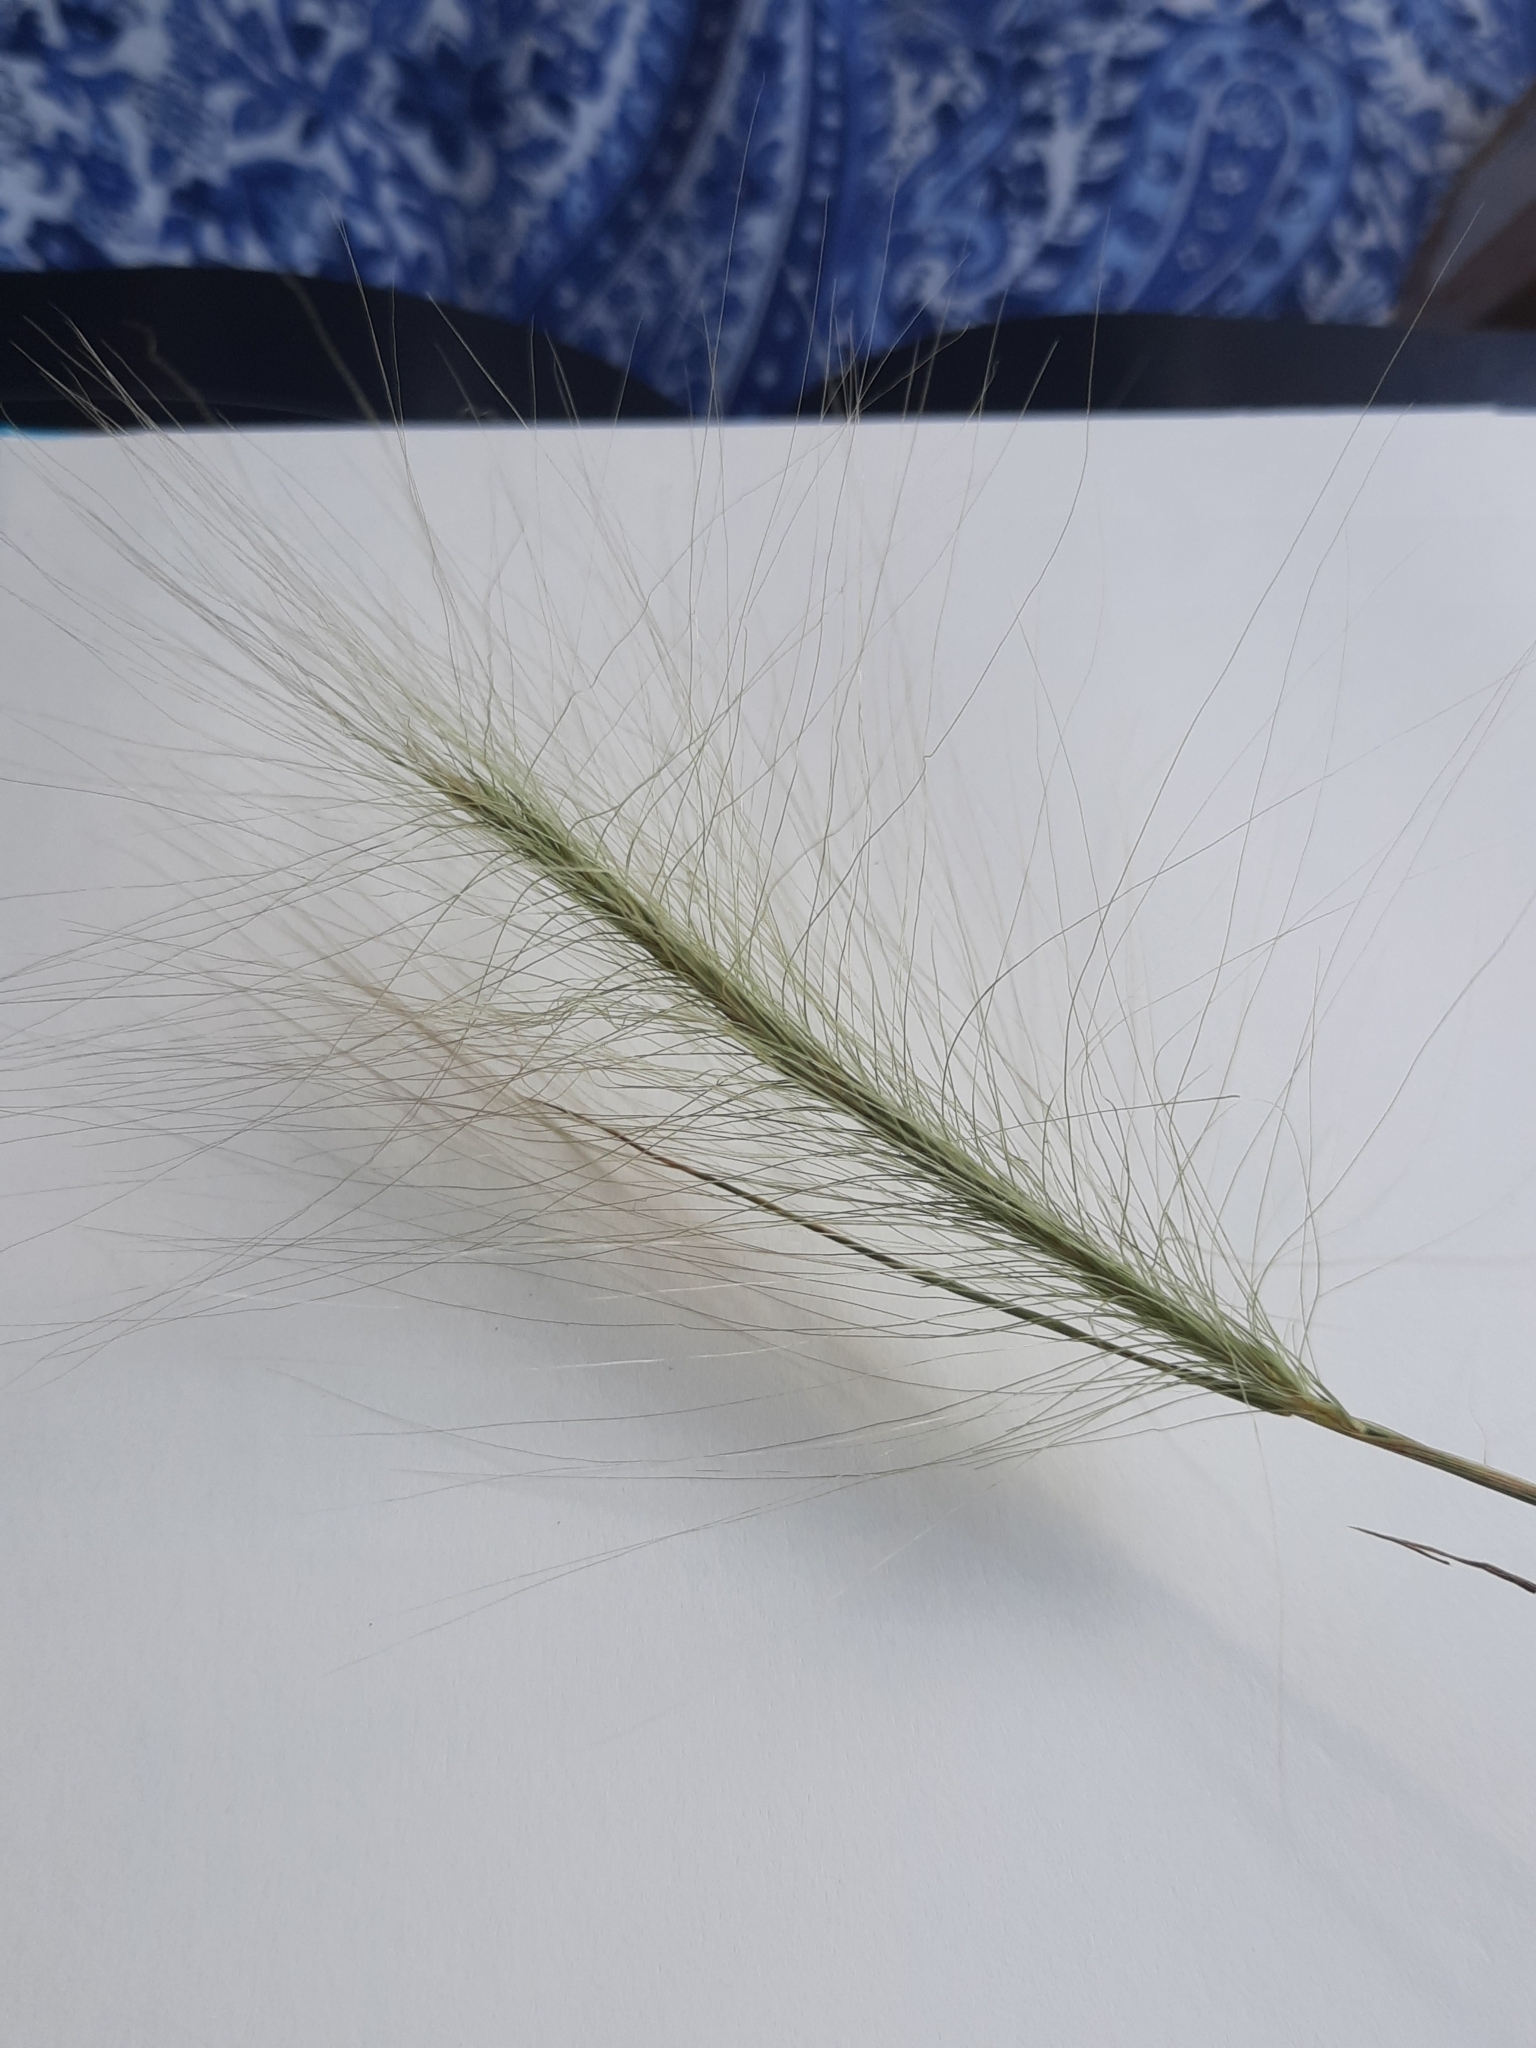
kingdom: Plantae
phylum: Tracheophyta
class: Liliopsida
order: Poales
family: Poaceae
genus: Hordeum
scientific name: Hordeum jubatum
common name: Foxtail barley
